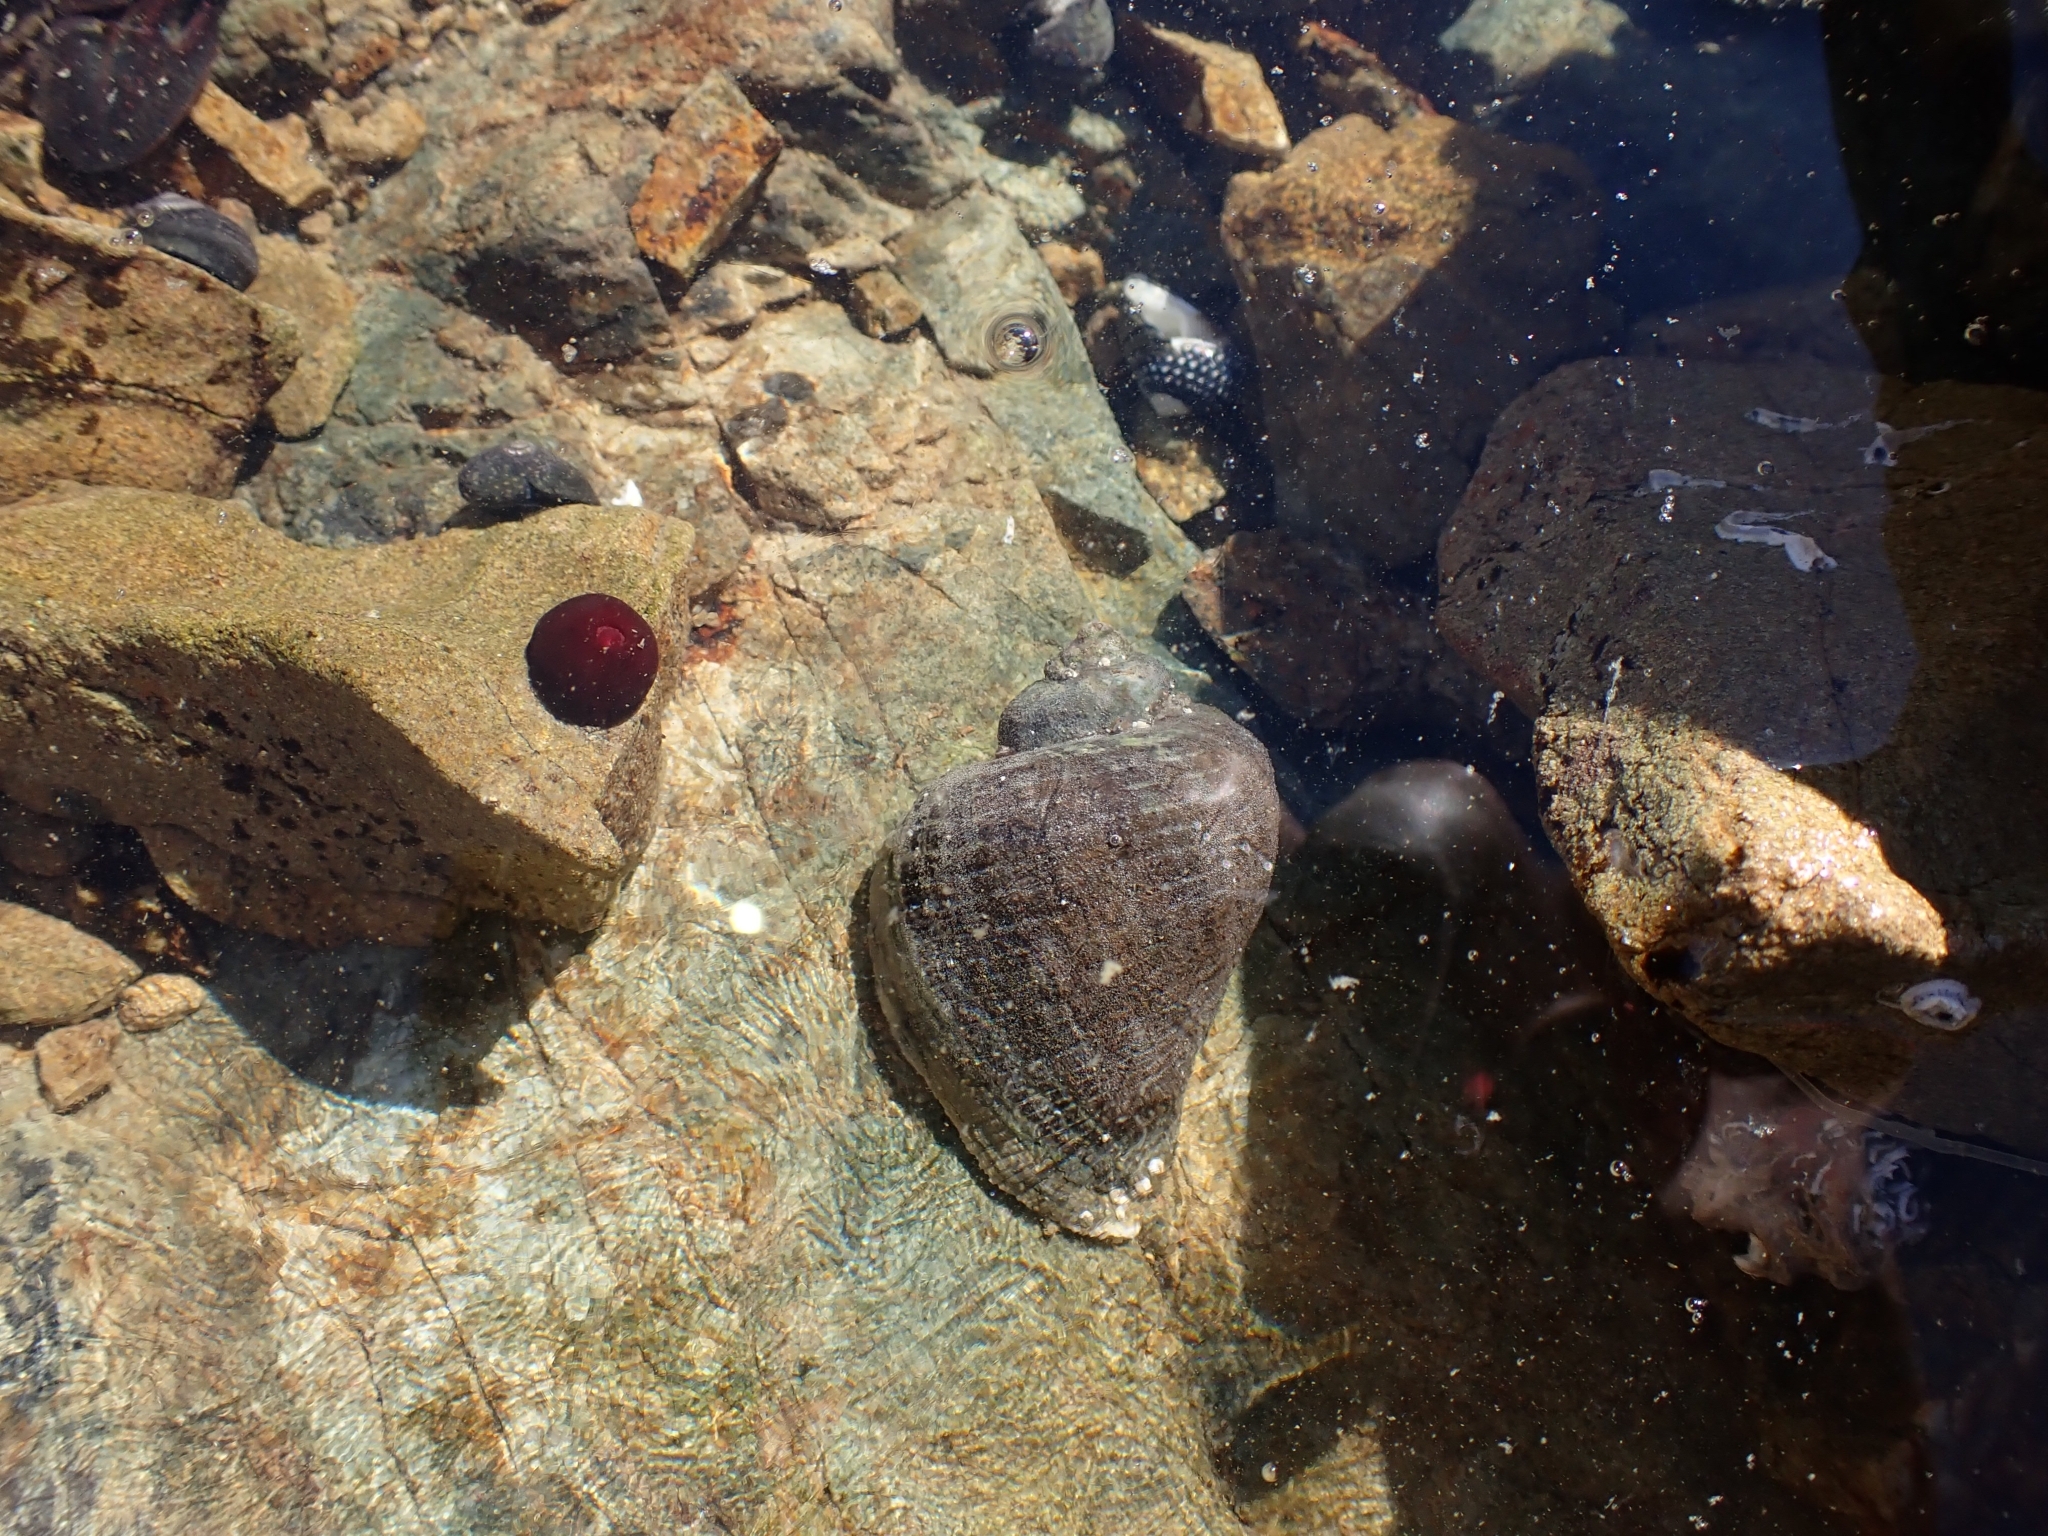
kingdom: Animalia
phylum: Mollusca
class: Gastropoda
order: Neogastropoda
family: Muricidae
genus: Haustrum
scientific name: Haustrum haustorium
